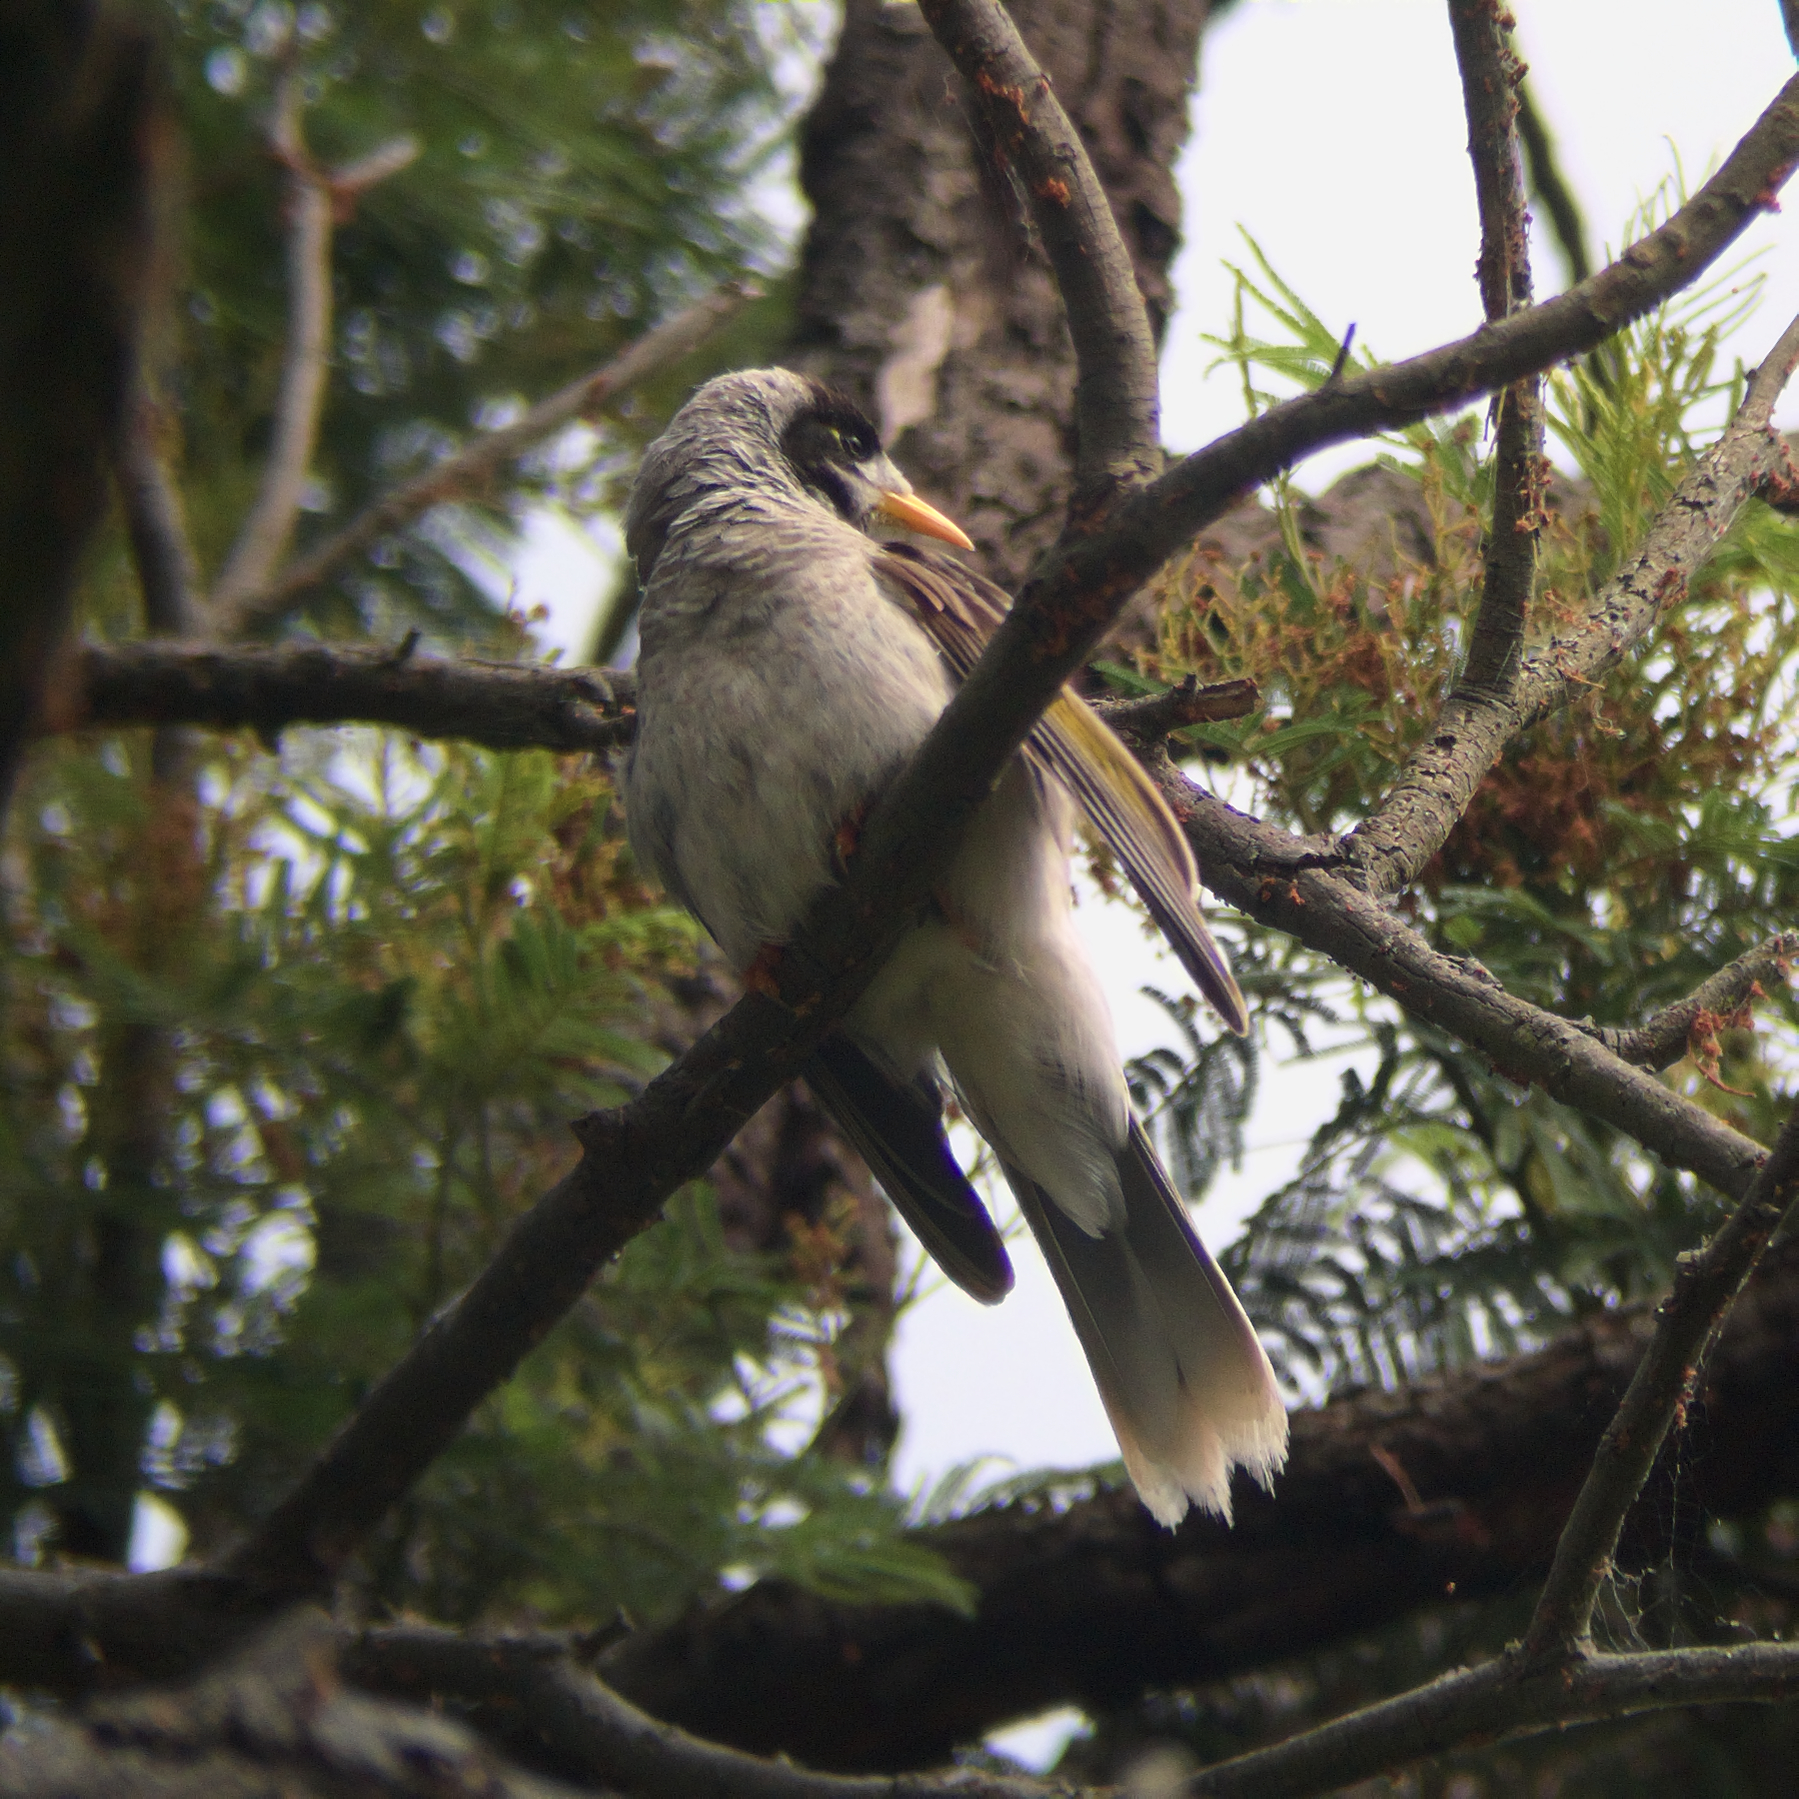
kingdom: Animalia
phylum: Chordata
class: Aves
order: Passeriformes
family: Meliphagidae
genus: Manorina
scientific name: Manorina melanocephala
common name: Noisy miner
